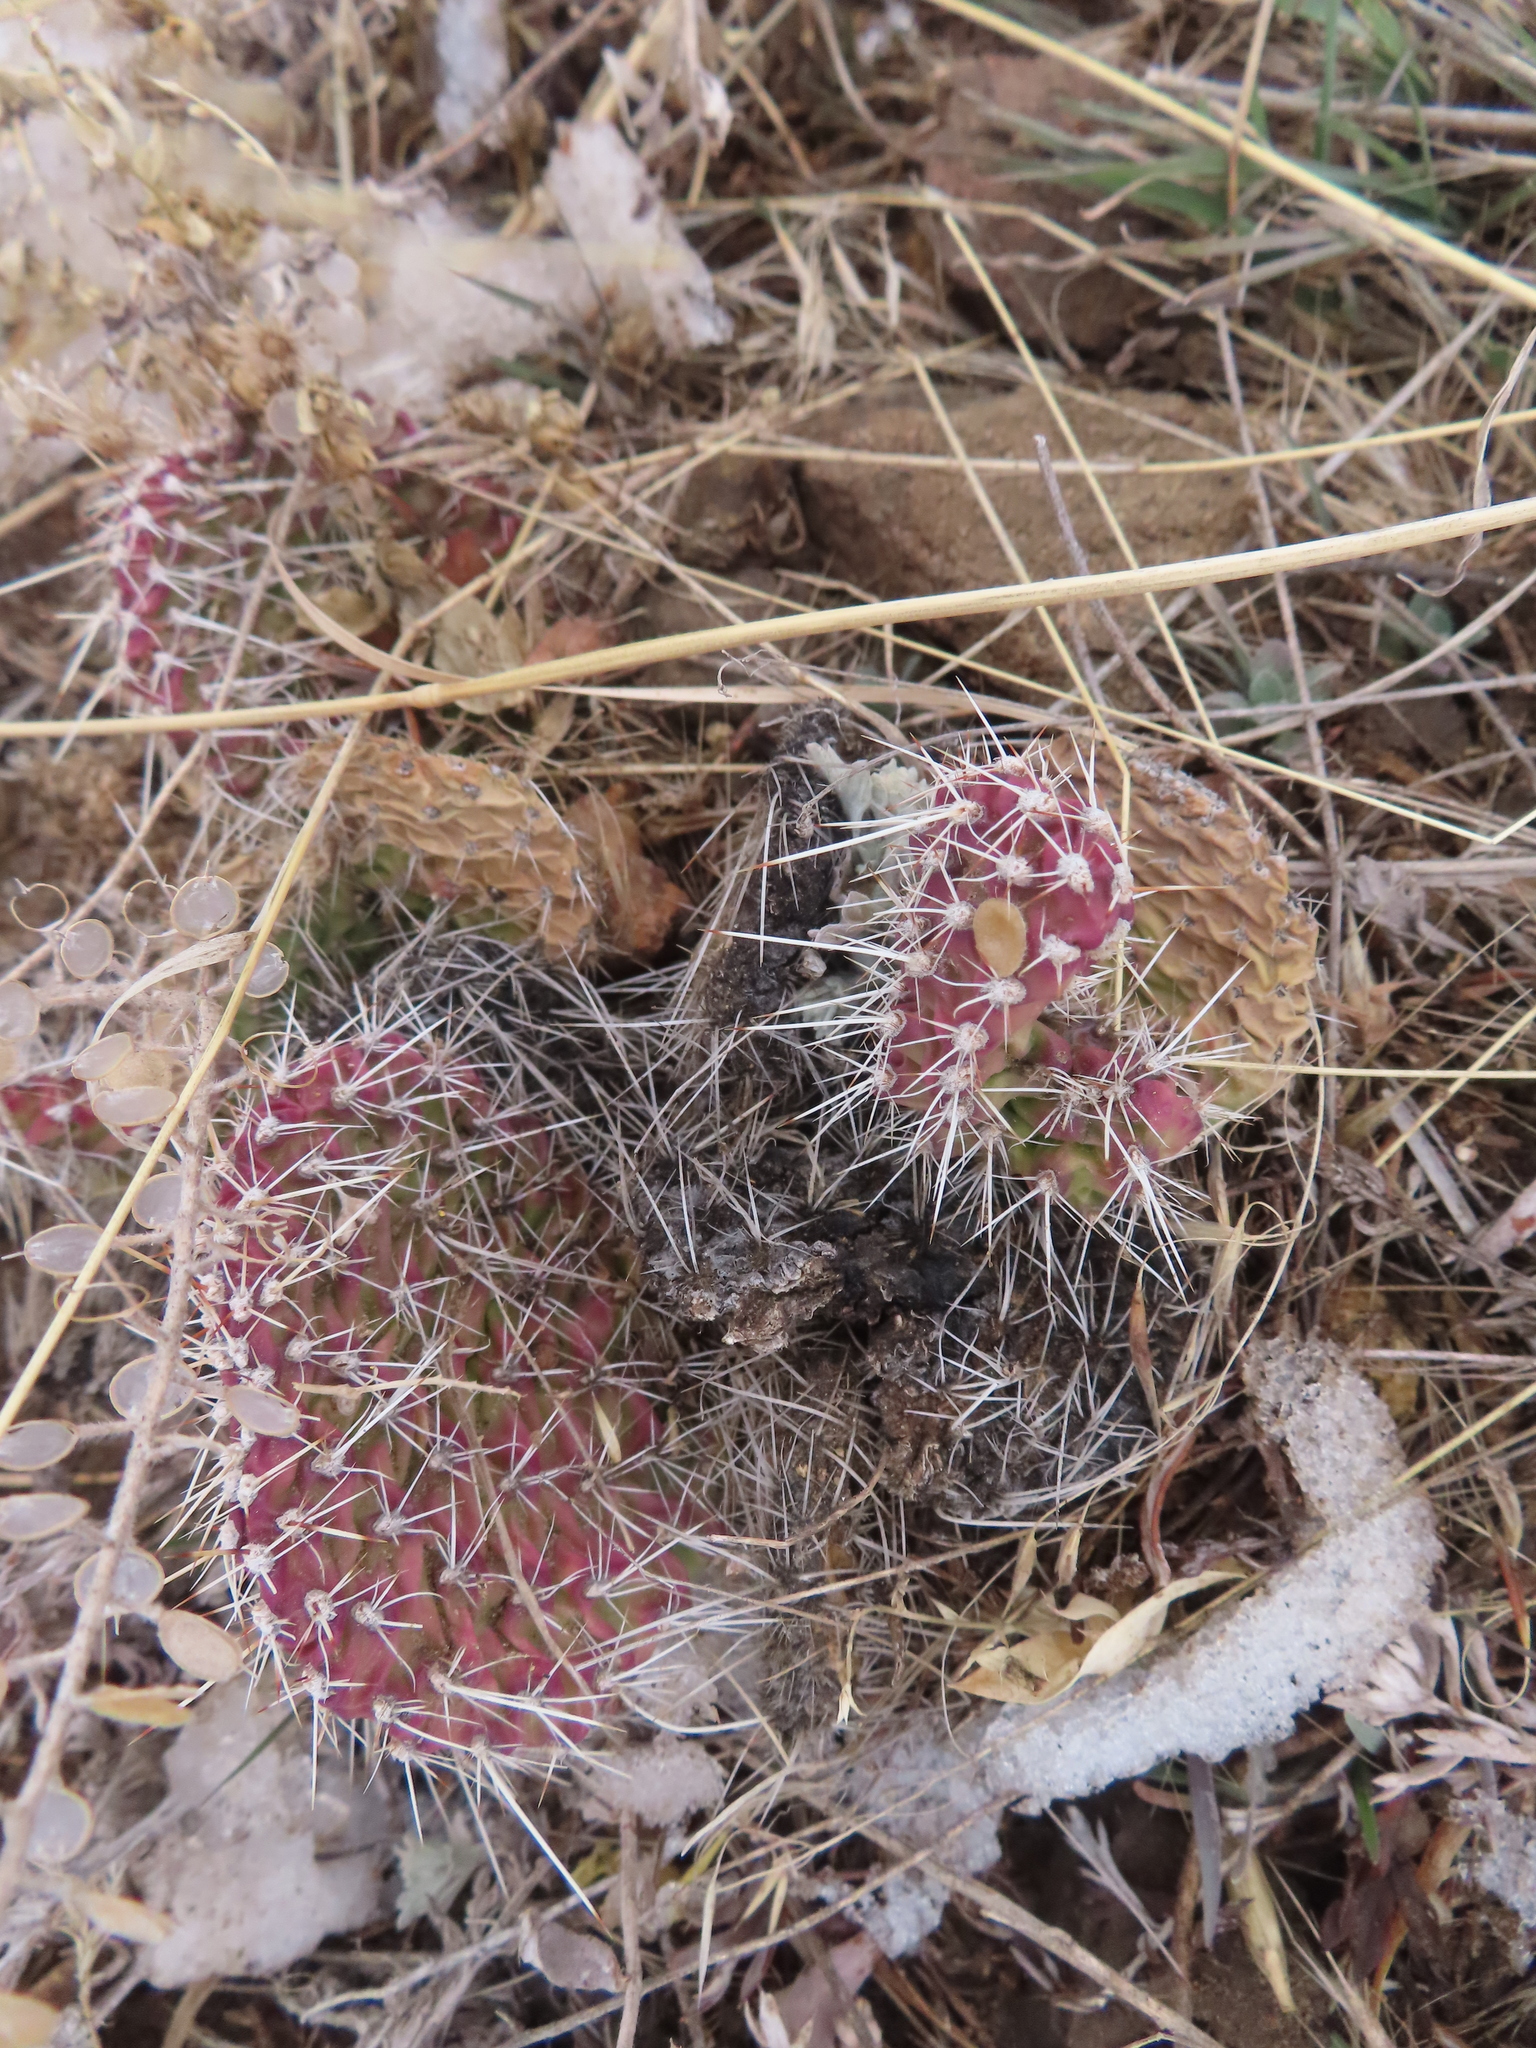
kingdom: Plantae
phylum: Tracheophyta
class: Magnoliopsida
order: Caryophyllales
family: Cactaceae
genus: Opuntia
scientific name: Opuntia polyacantha
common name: Plains prickly-pear
